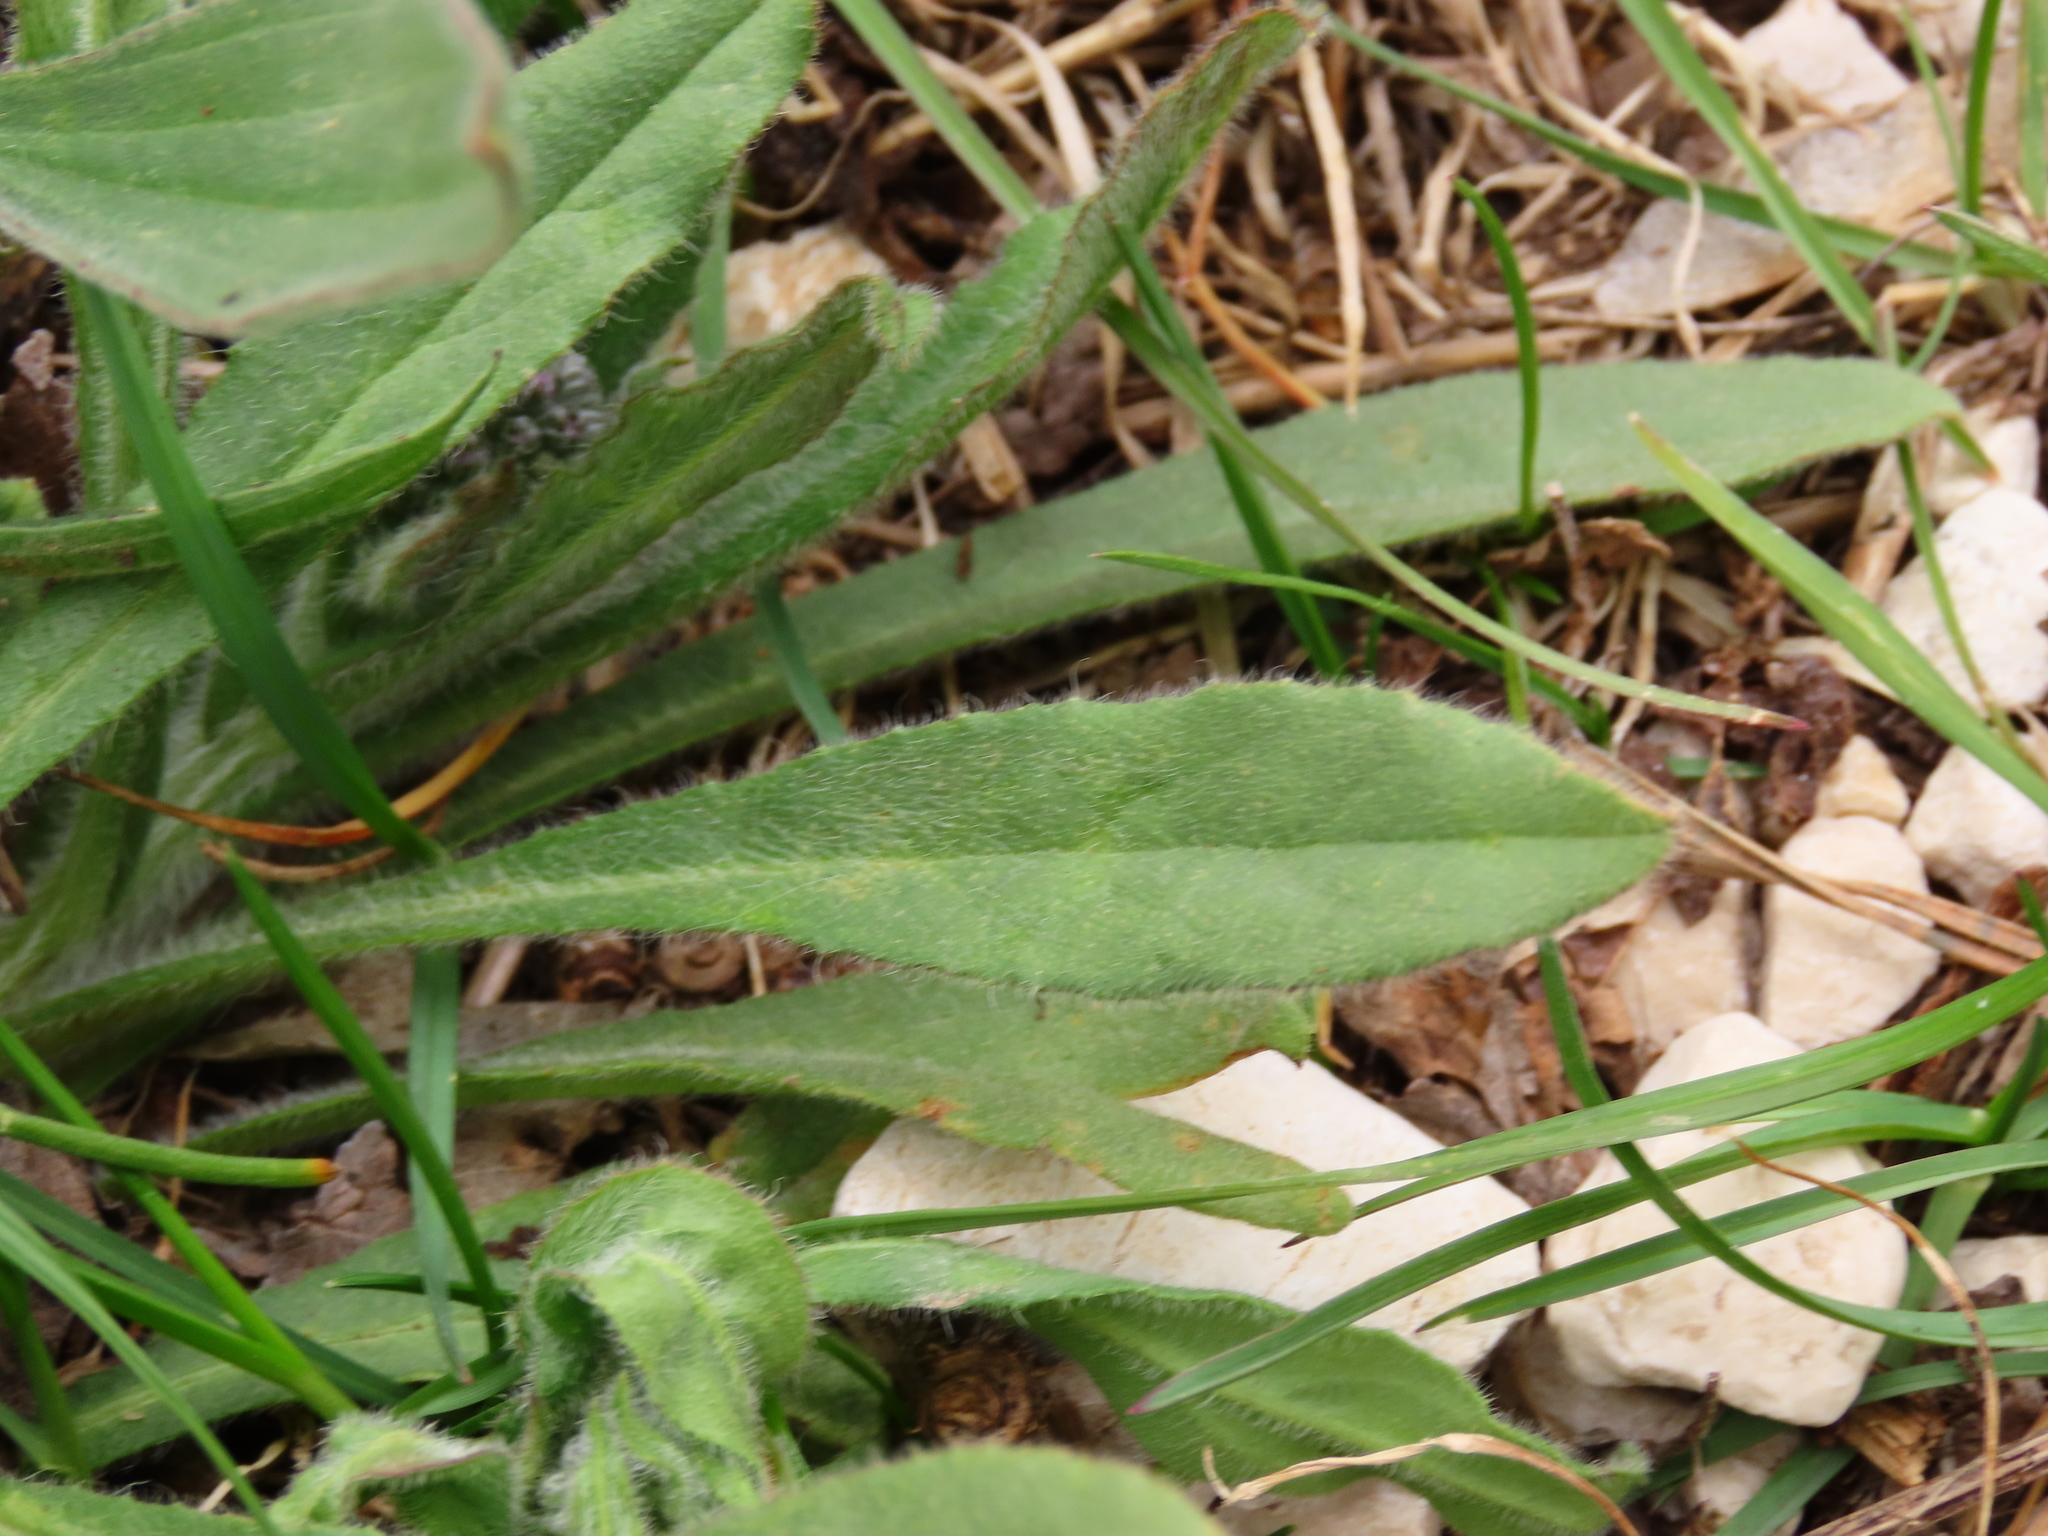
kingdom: Plantae
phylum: Tracheophyta
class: Magnoliopsida
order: Boraginales
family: Boraginaceae
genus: Cynoglottis
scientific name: Cynoglottis barrelieri
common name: False alkanet
